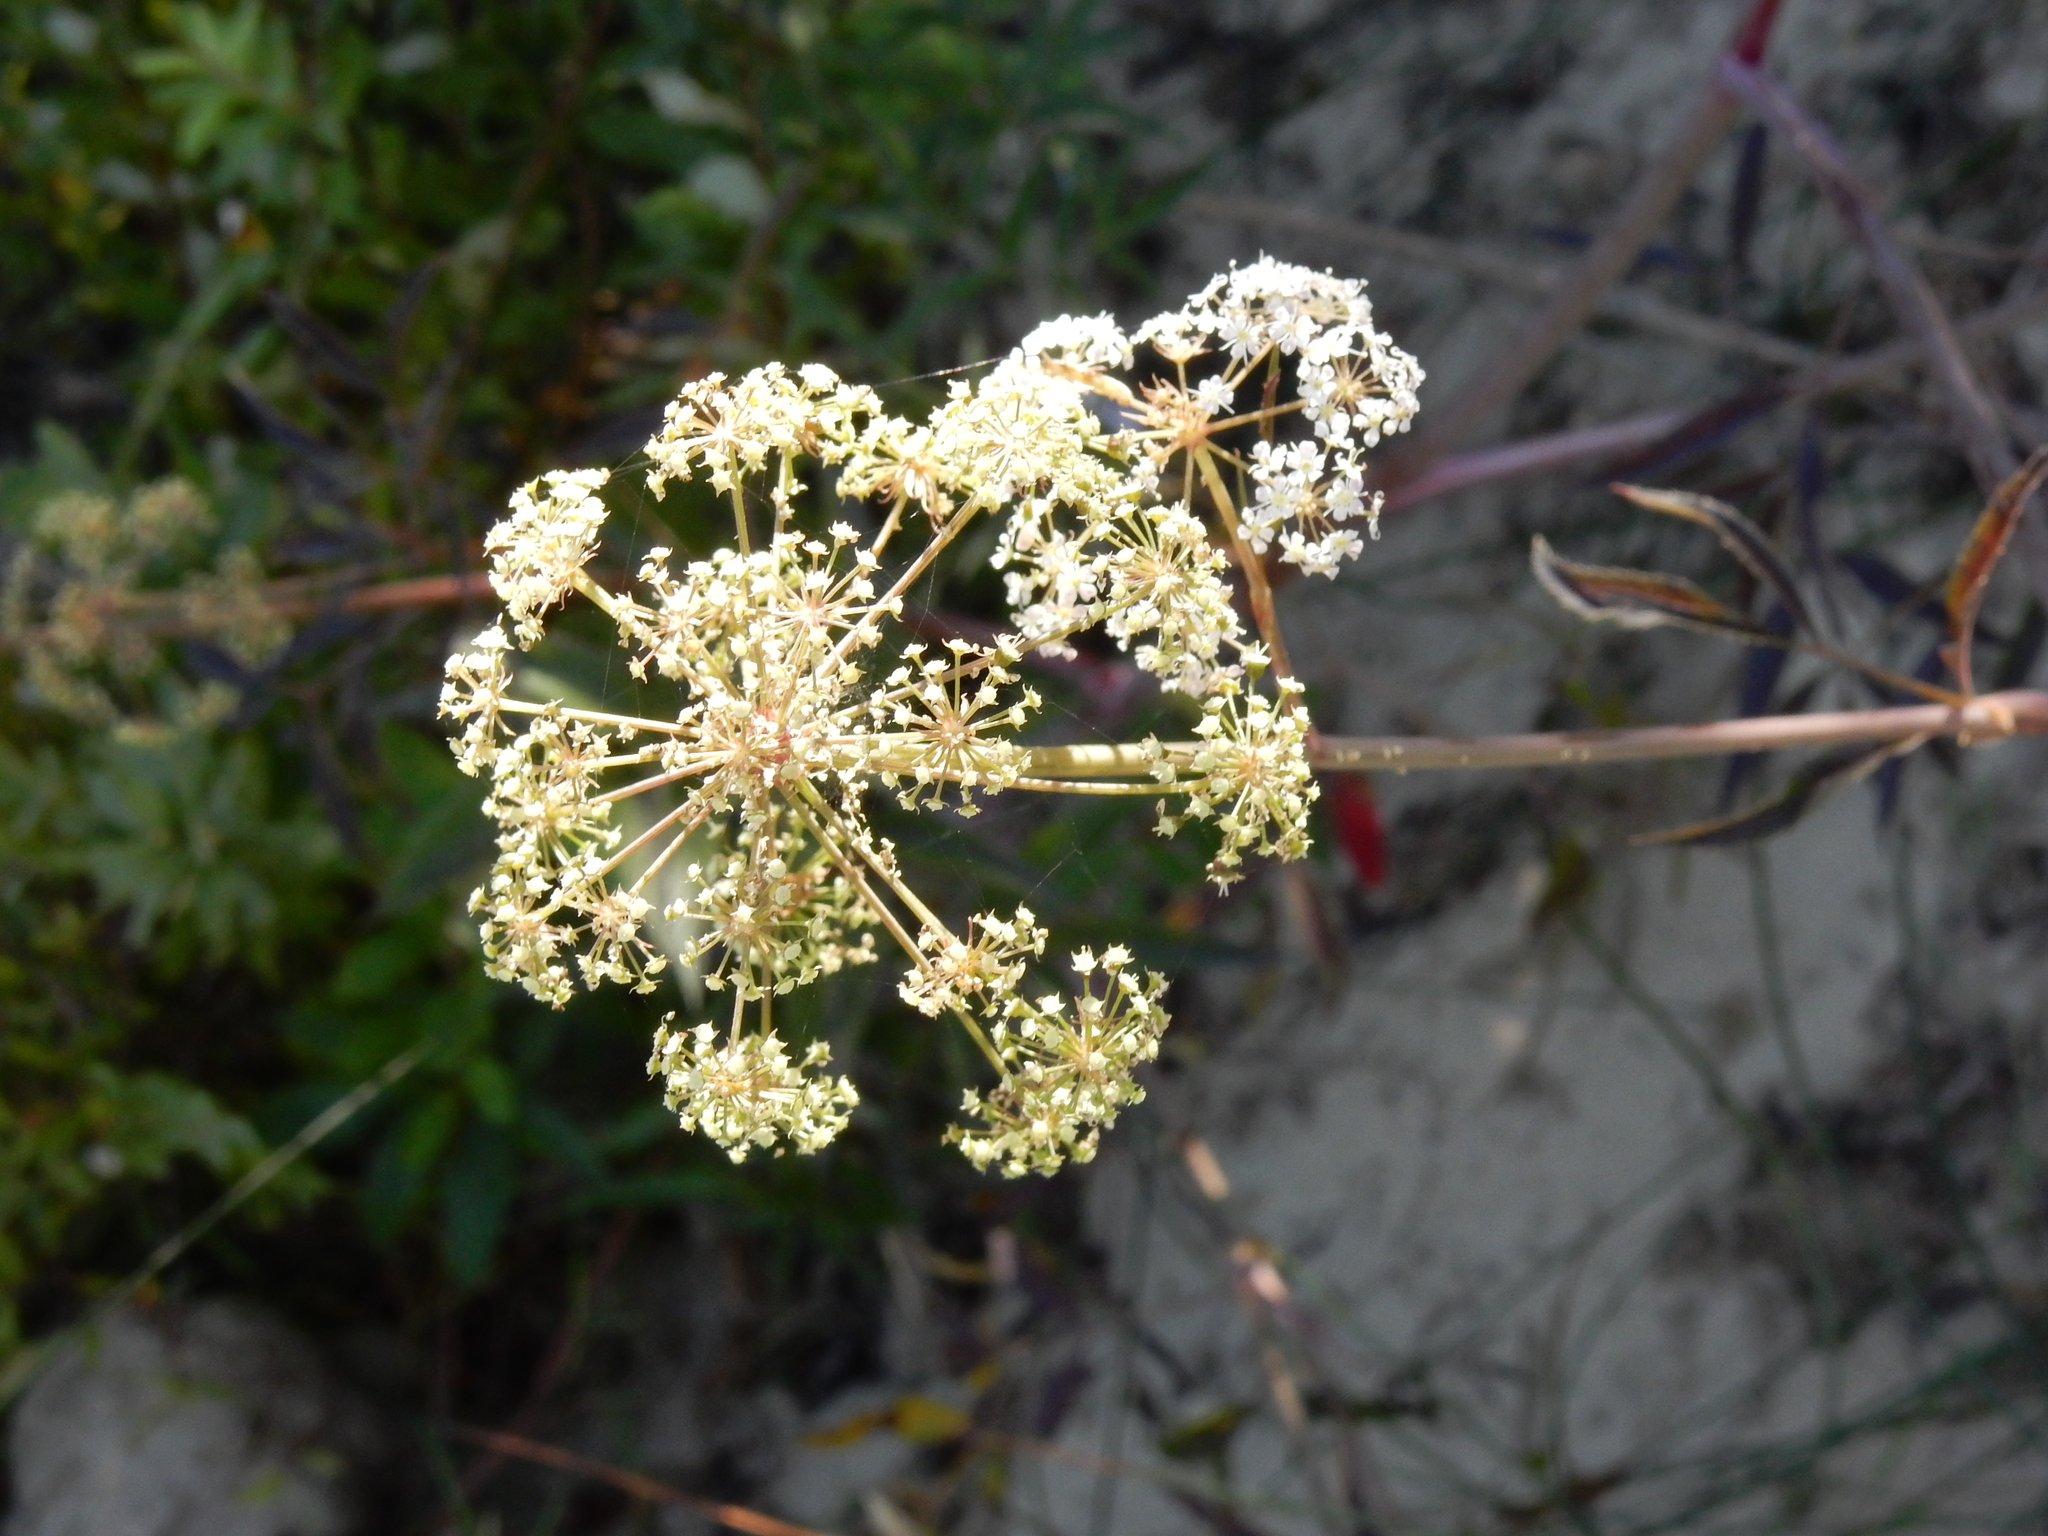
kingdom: Plantae
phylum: Tracheophyta
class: Magnoliopsida
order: Apiales
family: Apiaceae
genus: Cicuta
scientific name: Cicuta douglasii
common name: Western water-hemlock
